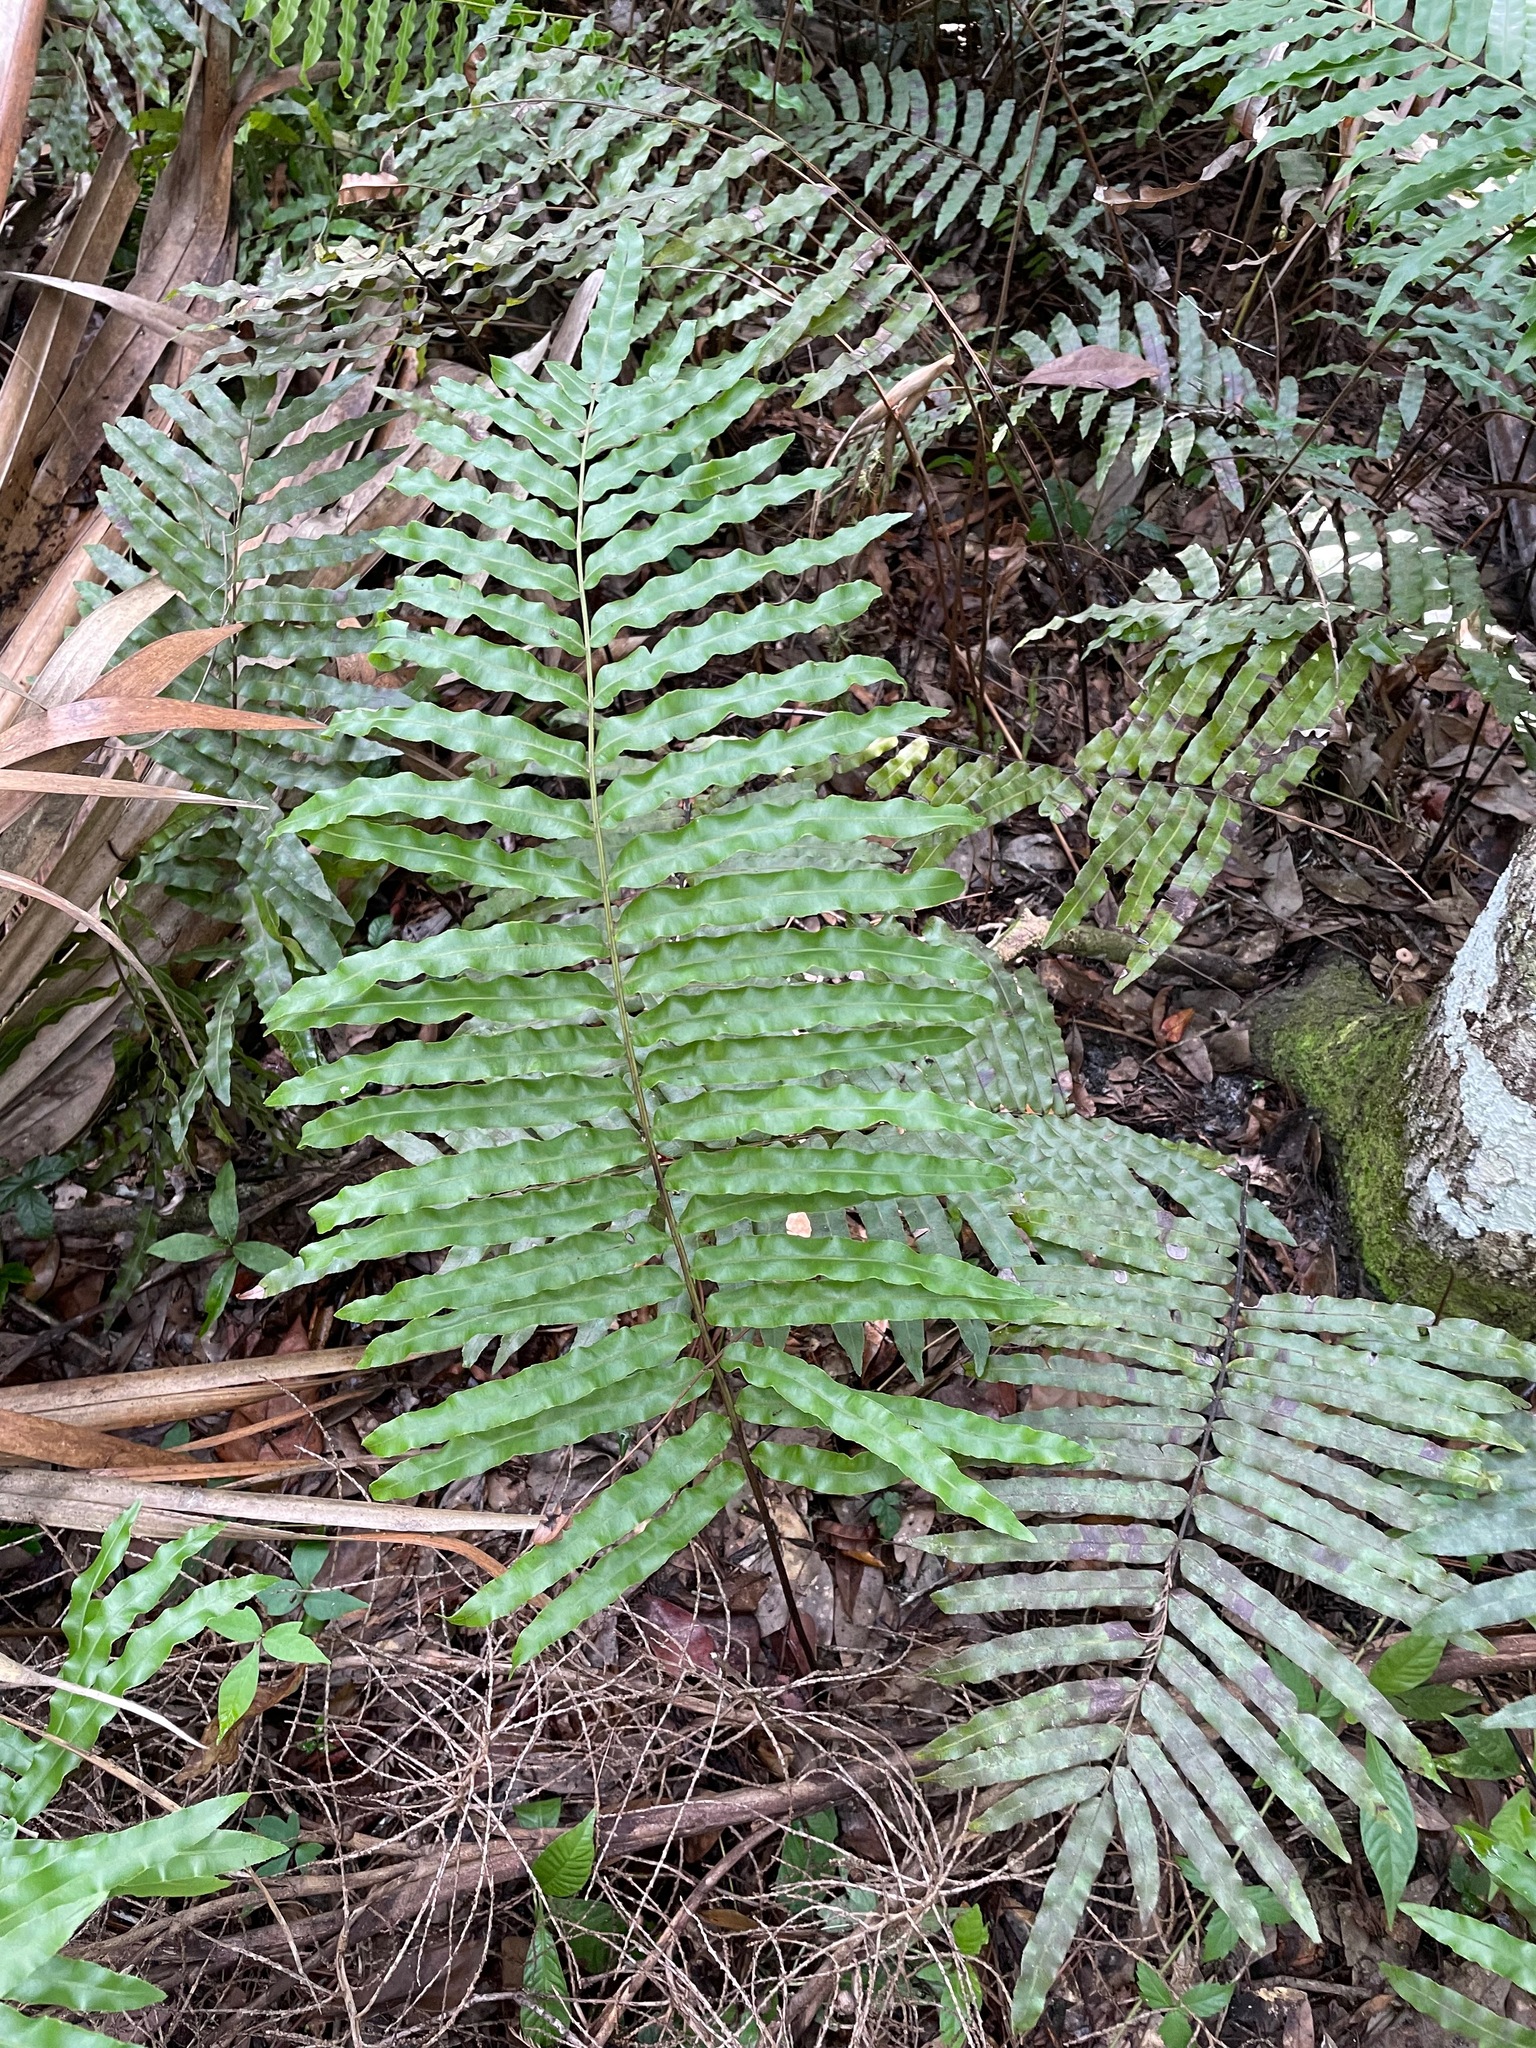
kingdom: Plantae
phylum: Tracheophyta
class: Polypodiopsida
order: Polypodiales
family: Blechnaceae
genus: Telmatoblechnum
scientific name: Telmatoblechnum serrulatum
